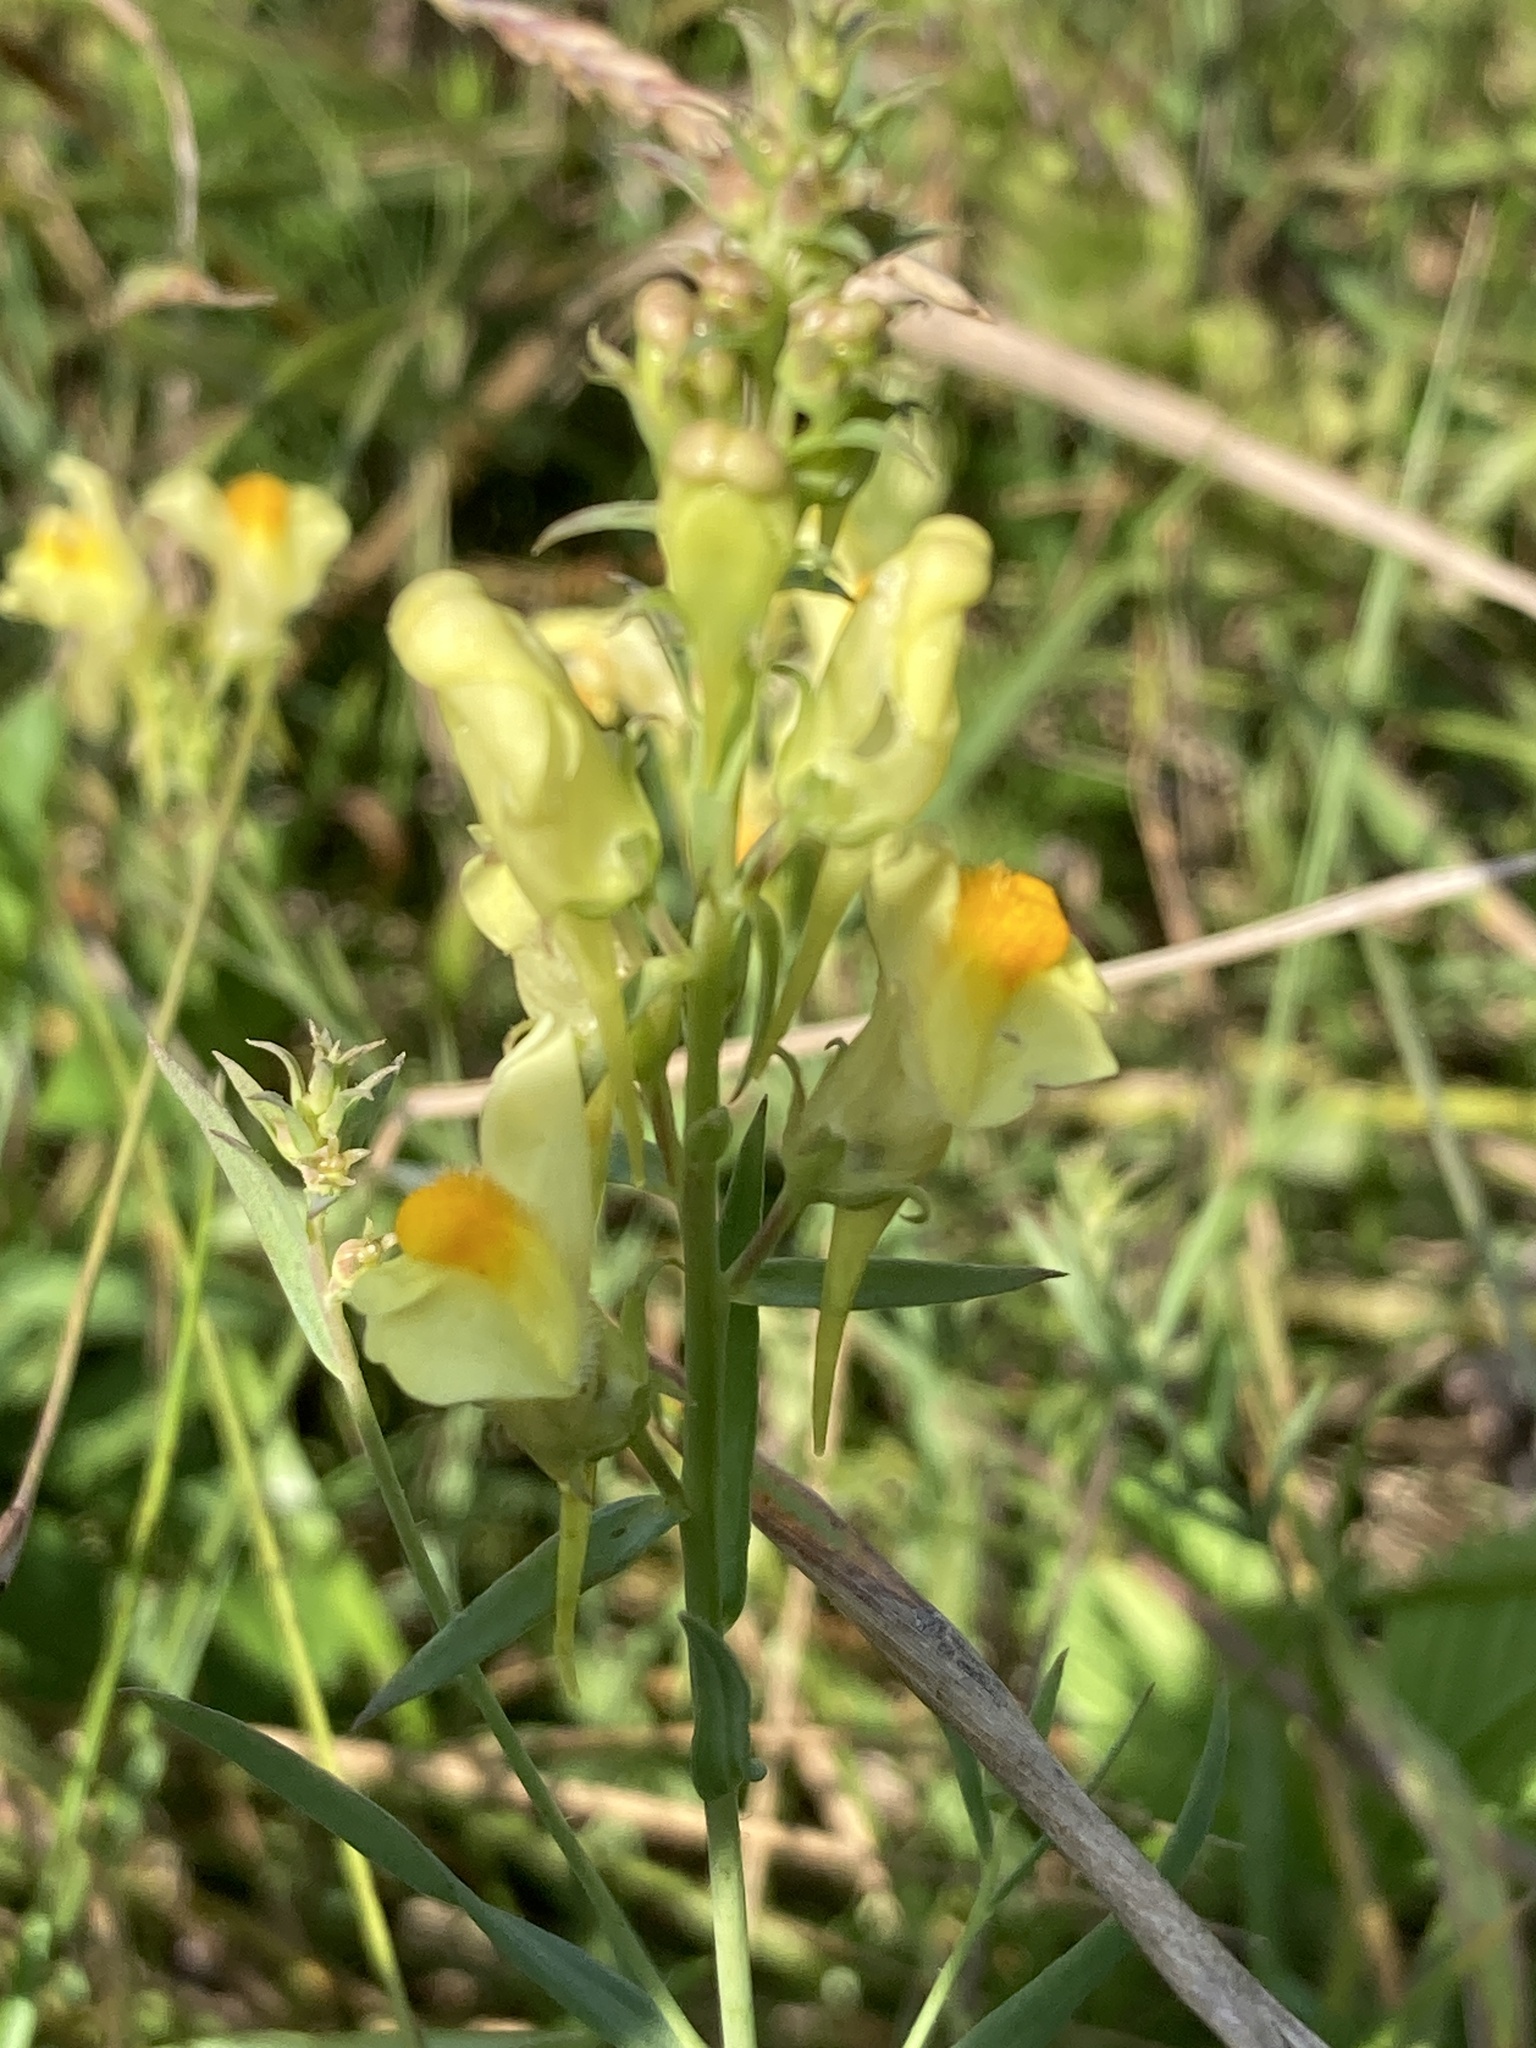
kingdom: Plantae
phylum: Tracheophyta
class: Magnoliopsida
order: Lamiales
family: Plantaginaceae
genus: Linaria
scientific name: Linaria vulgaris
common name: Butter and eggs
